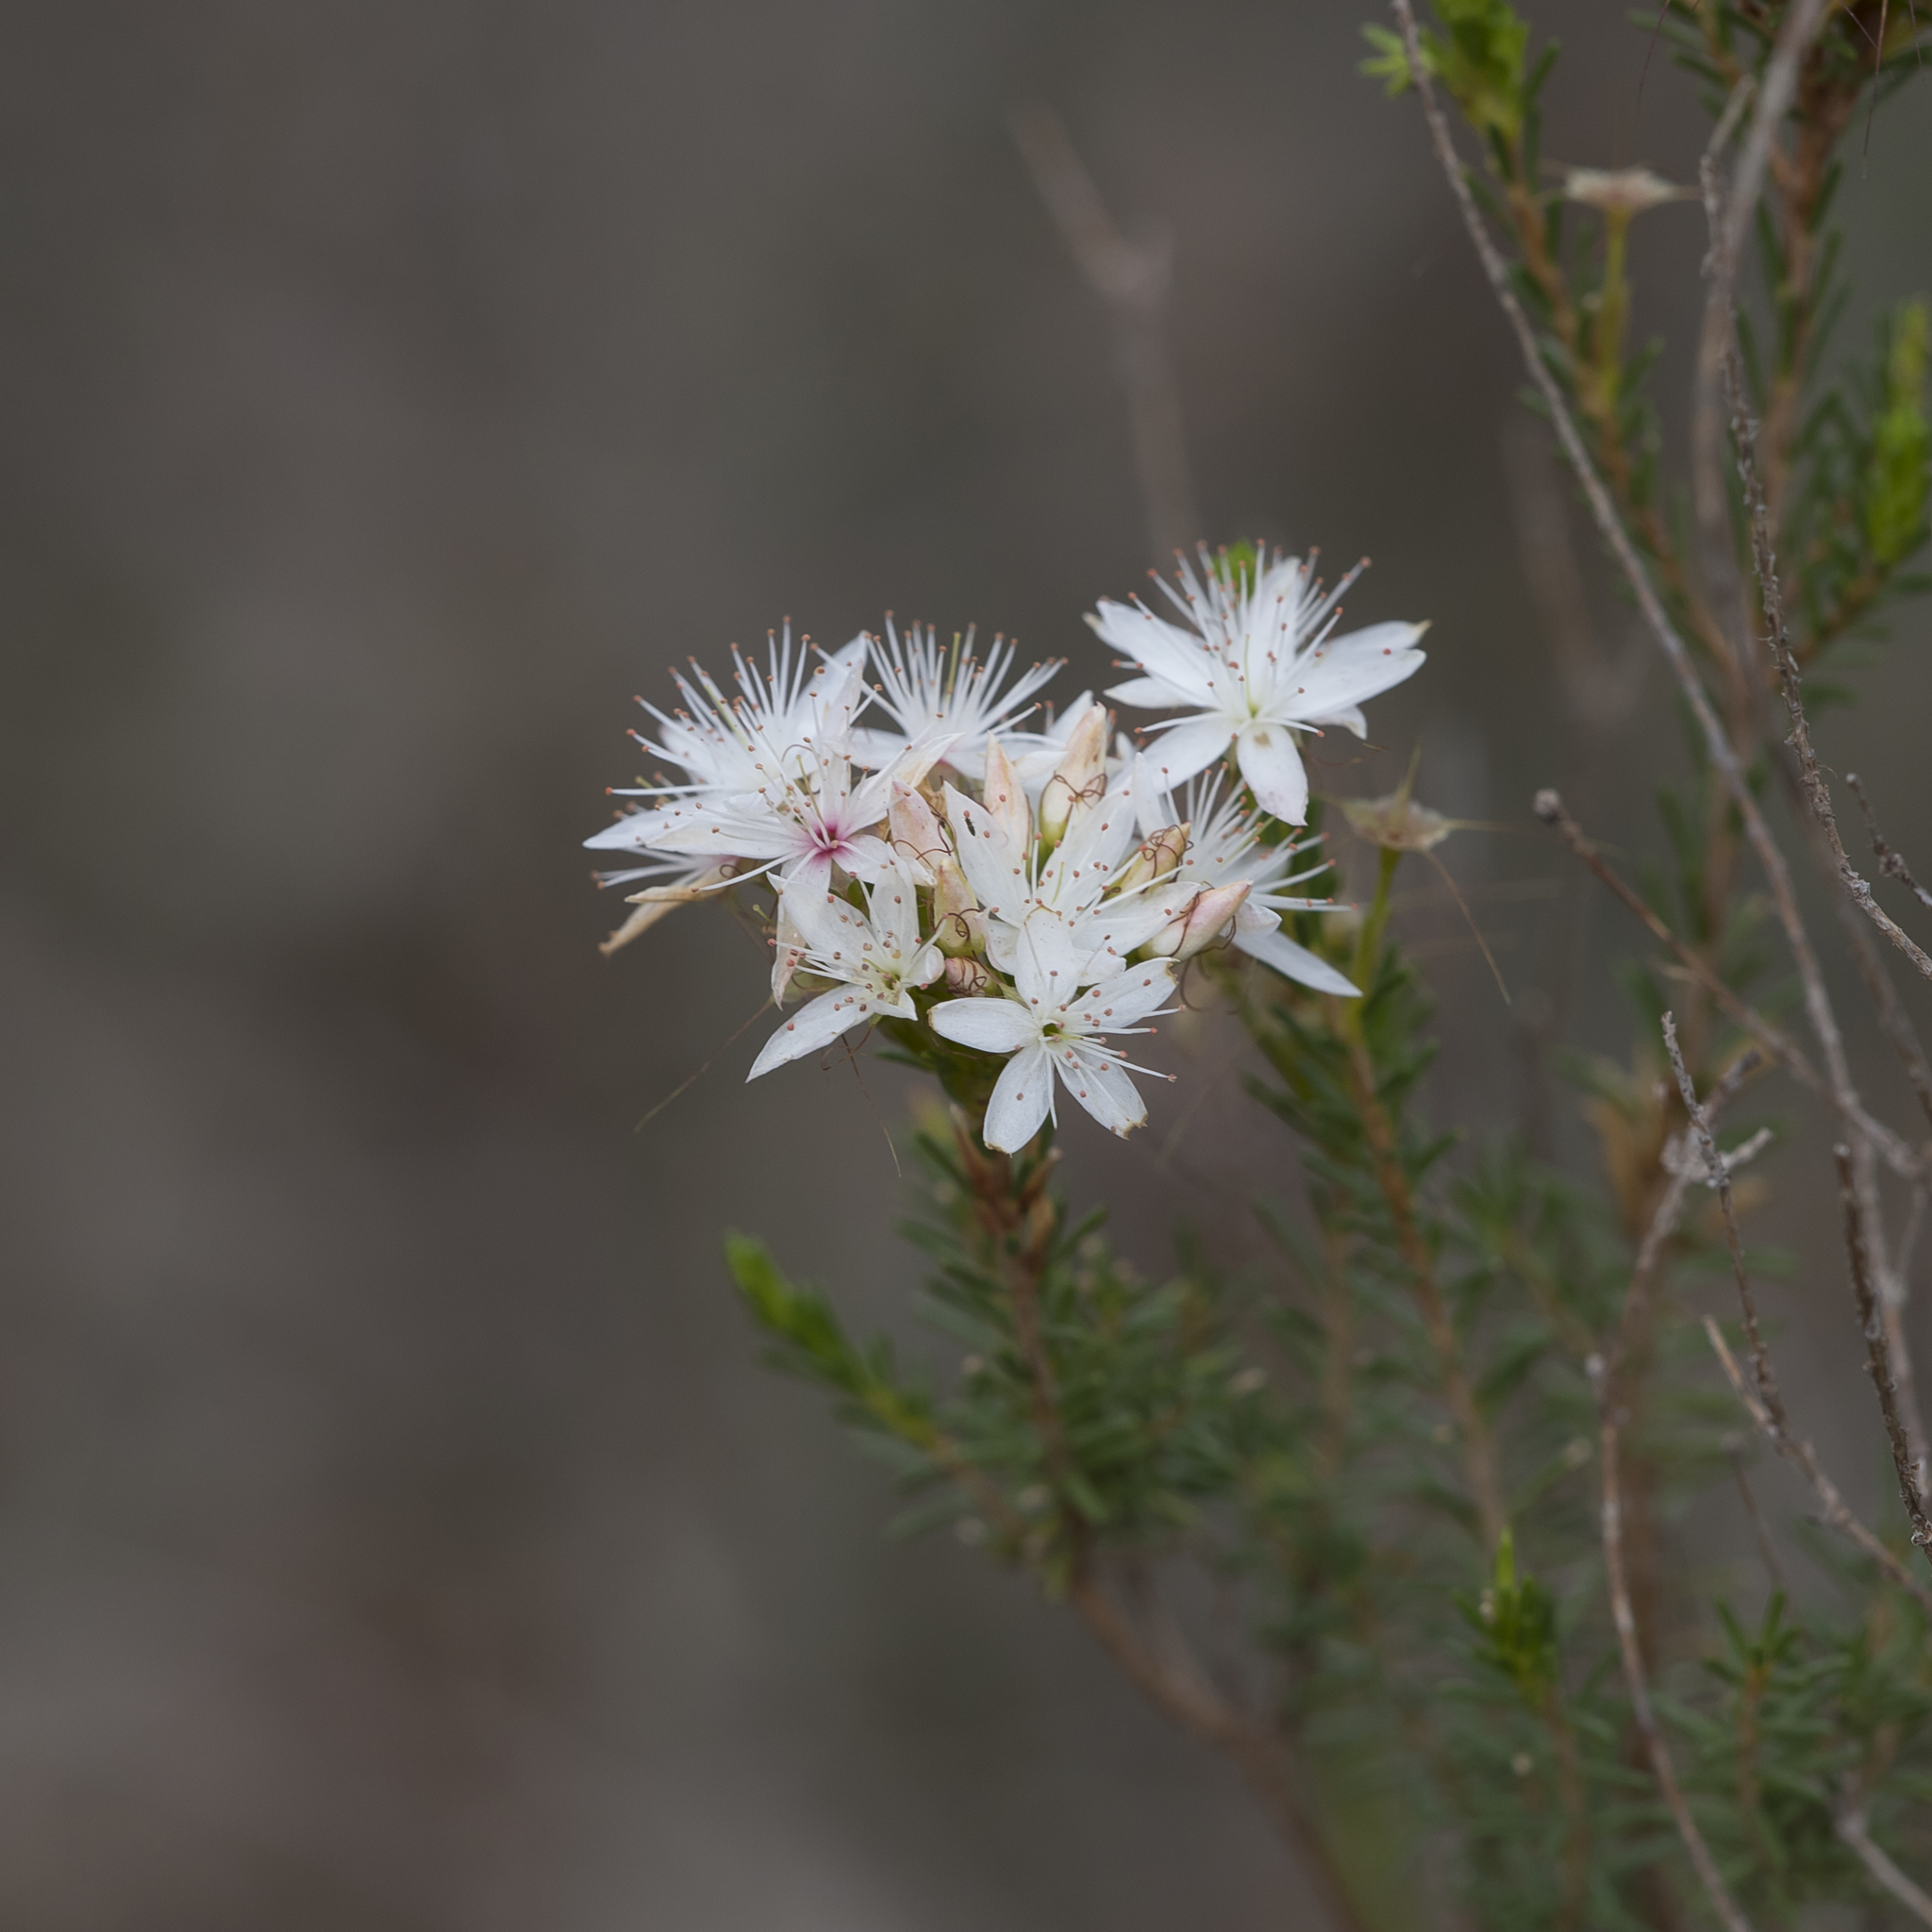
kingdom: Plantae
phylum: Tracheophyta
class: Magnoliopsida
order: Myrtales
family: Myrtaceae
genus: Calytrix
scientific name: Calytrix tetragona
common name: Common fringe myrtle
